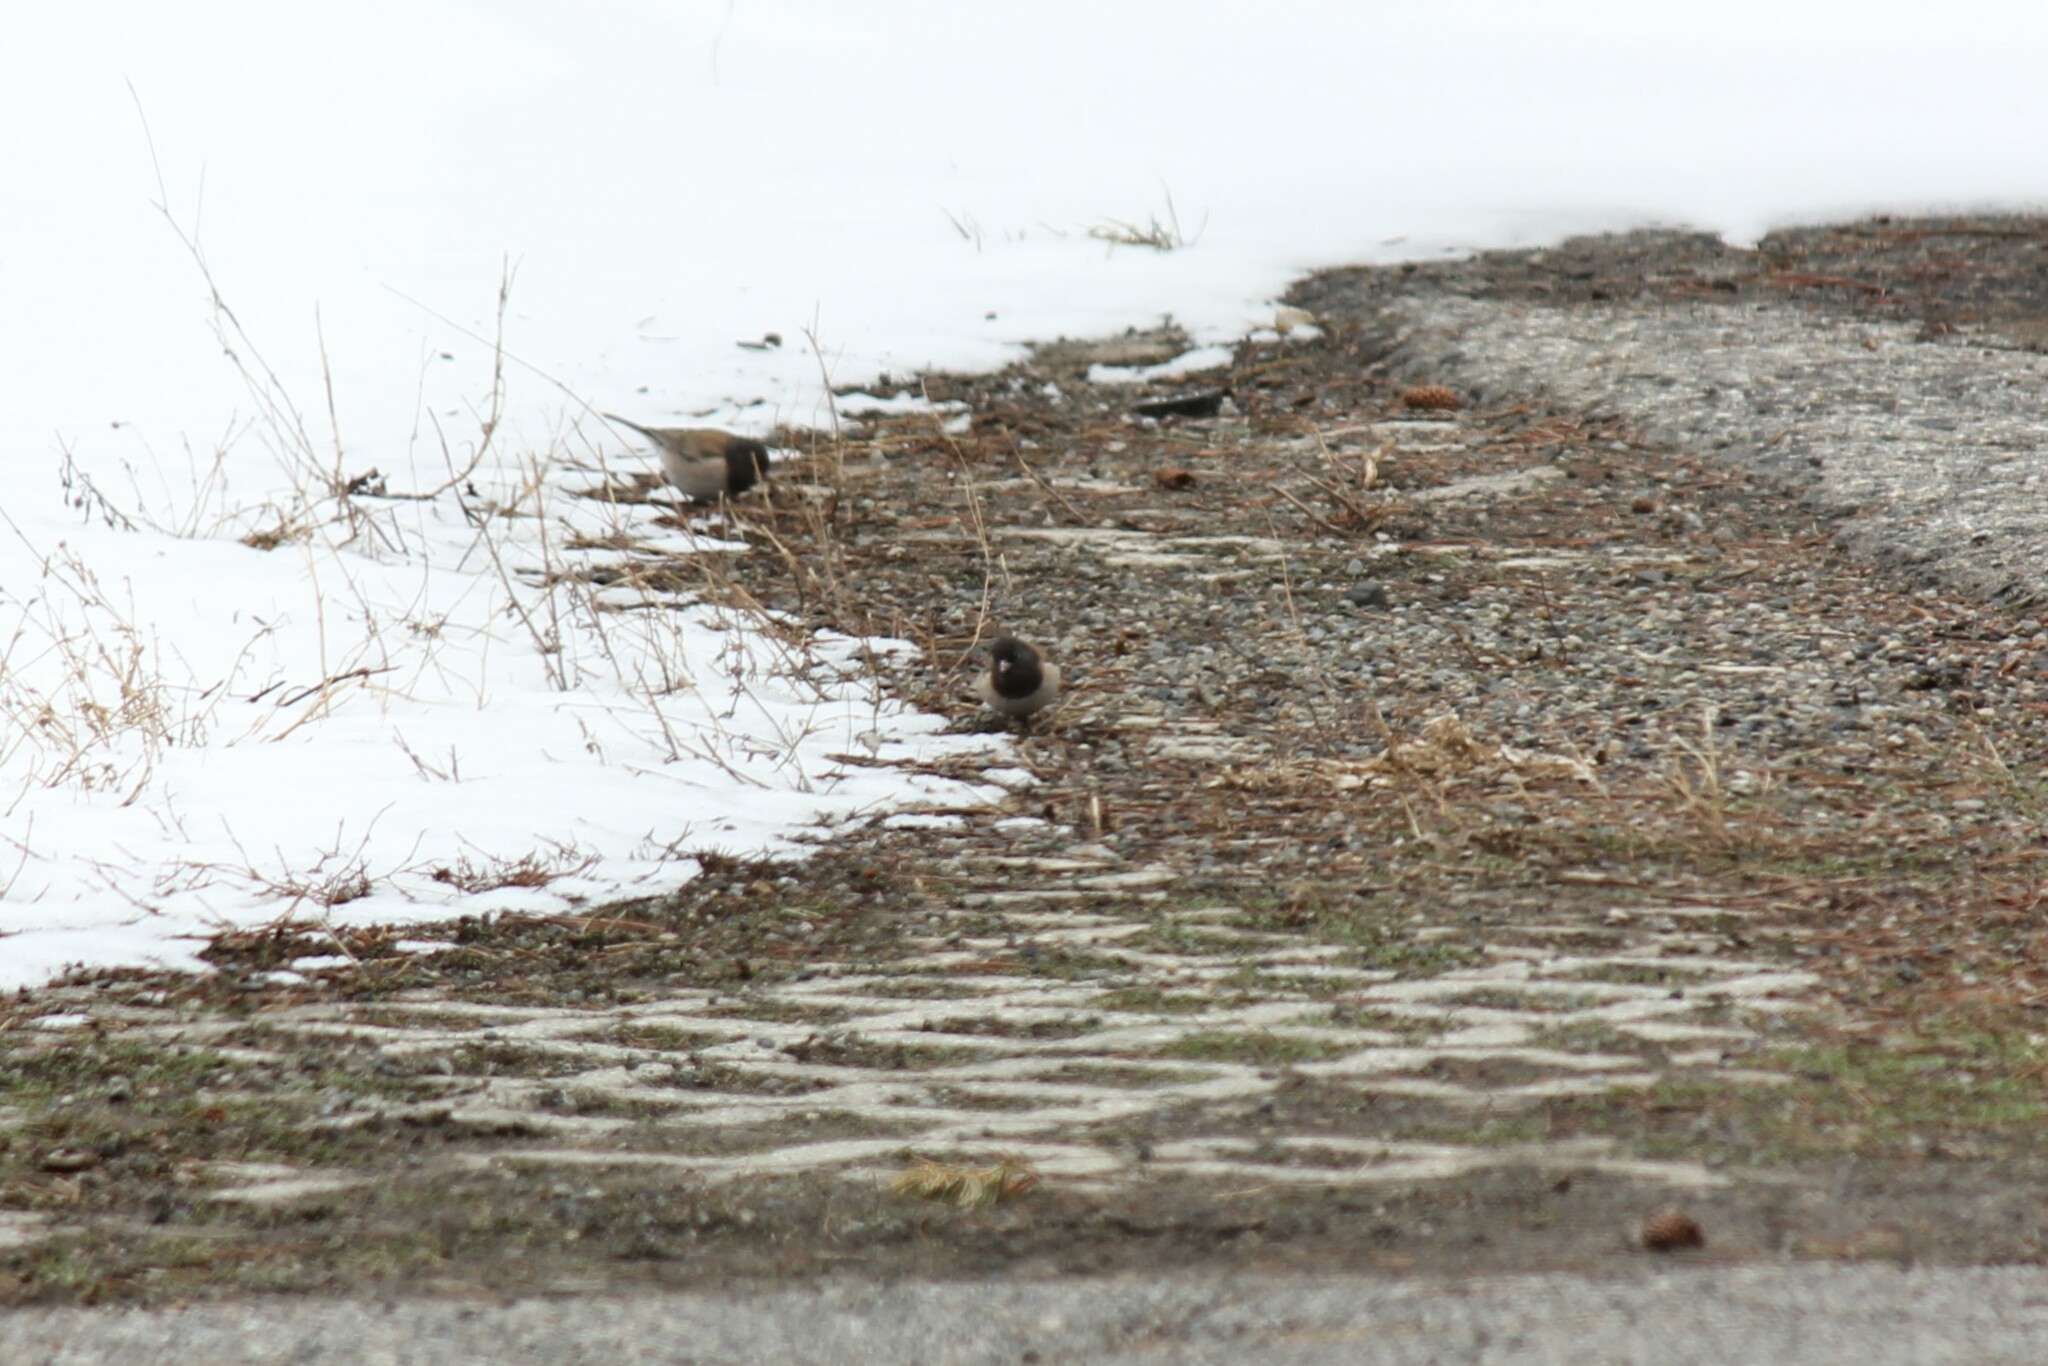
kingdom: Animalia
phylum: Chordata
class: Aves
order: Passeriformes
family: Passerellidae
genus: Junco
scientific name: Junco hyemalis
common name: Dark-eyed junco
